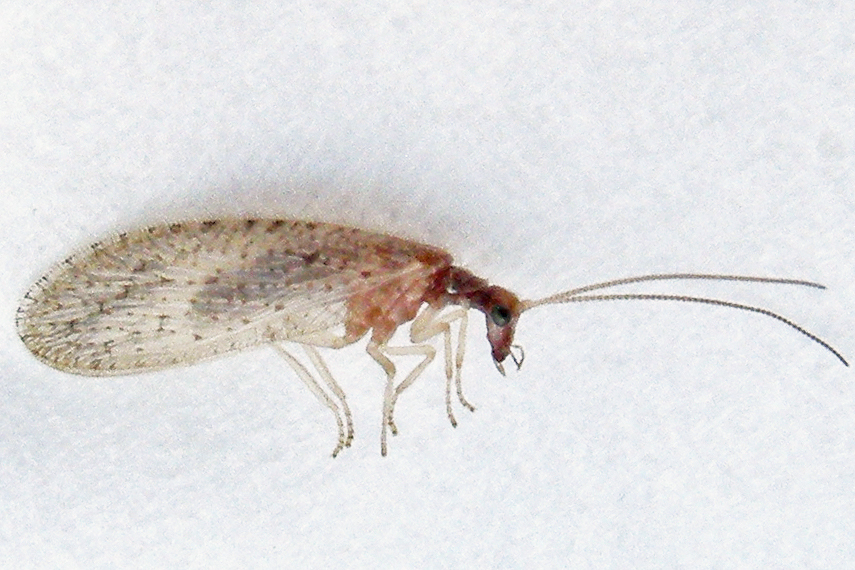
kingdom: Animalia
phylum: Arthropoda
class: Insecta
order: Neuroptera
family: Hemerobiidae
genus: Micromus
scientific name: Micromus subanticus
